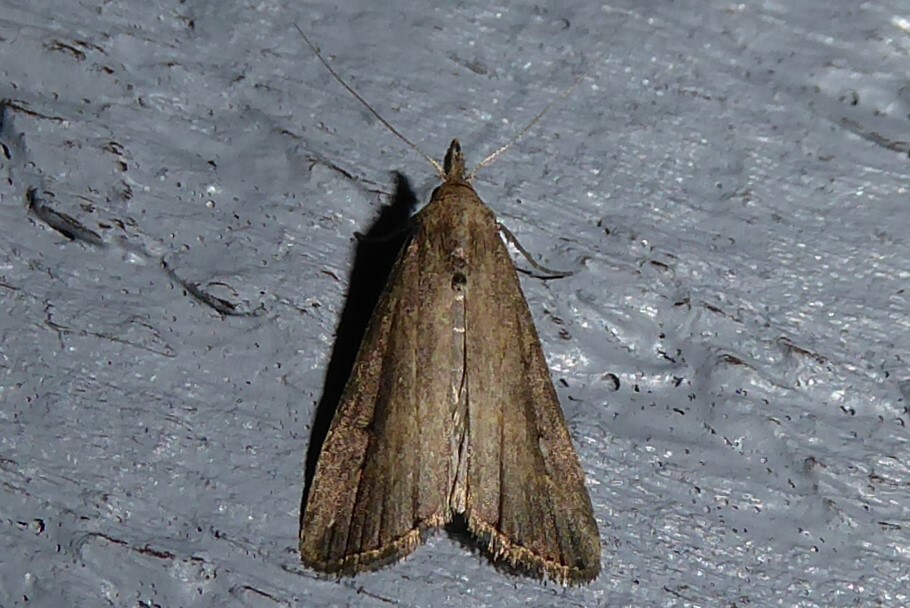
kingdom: Animalia
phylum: Arthropoda
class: Insecta
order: Lepidoptera
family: Erebidae
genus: Schrankia
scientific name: Schrankia costaestrigalis
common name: Pinion-streaked snout
